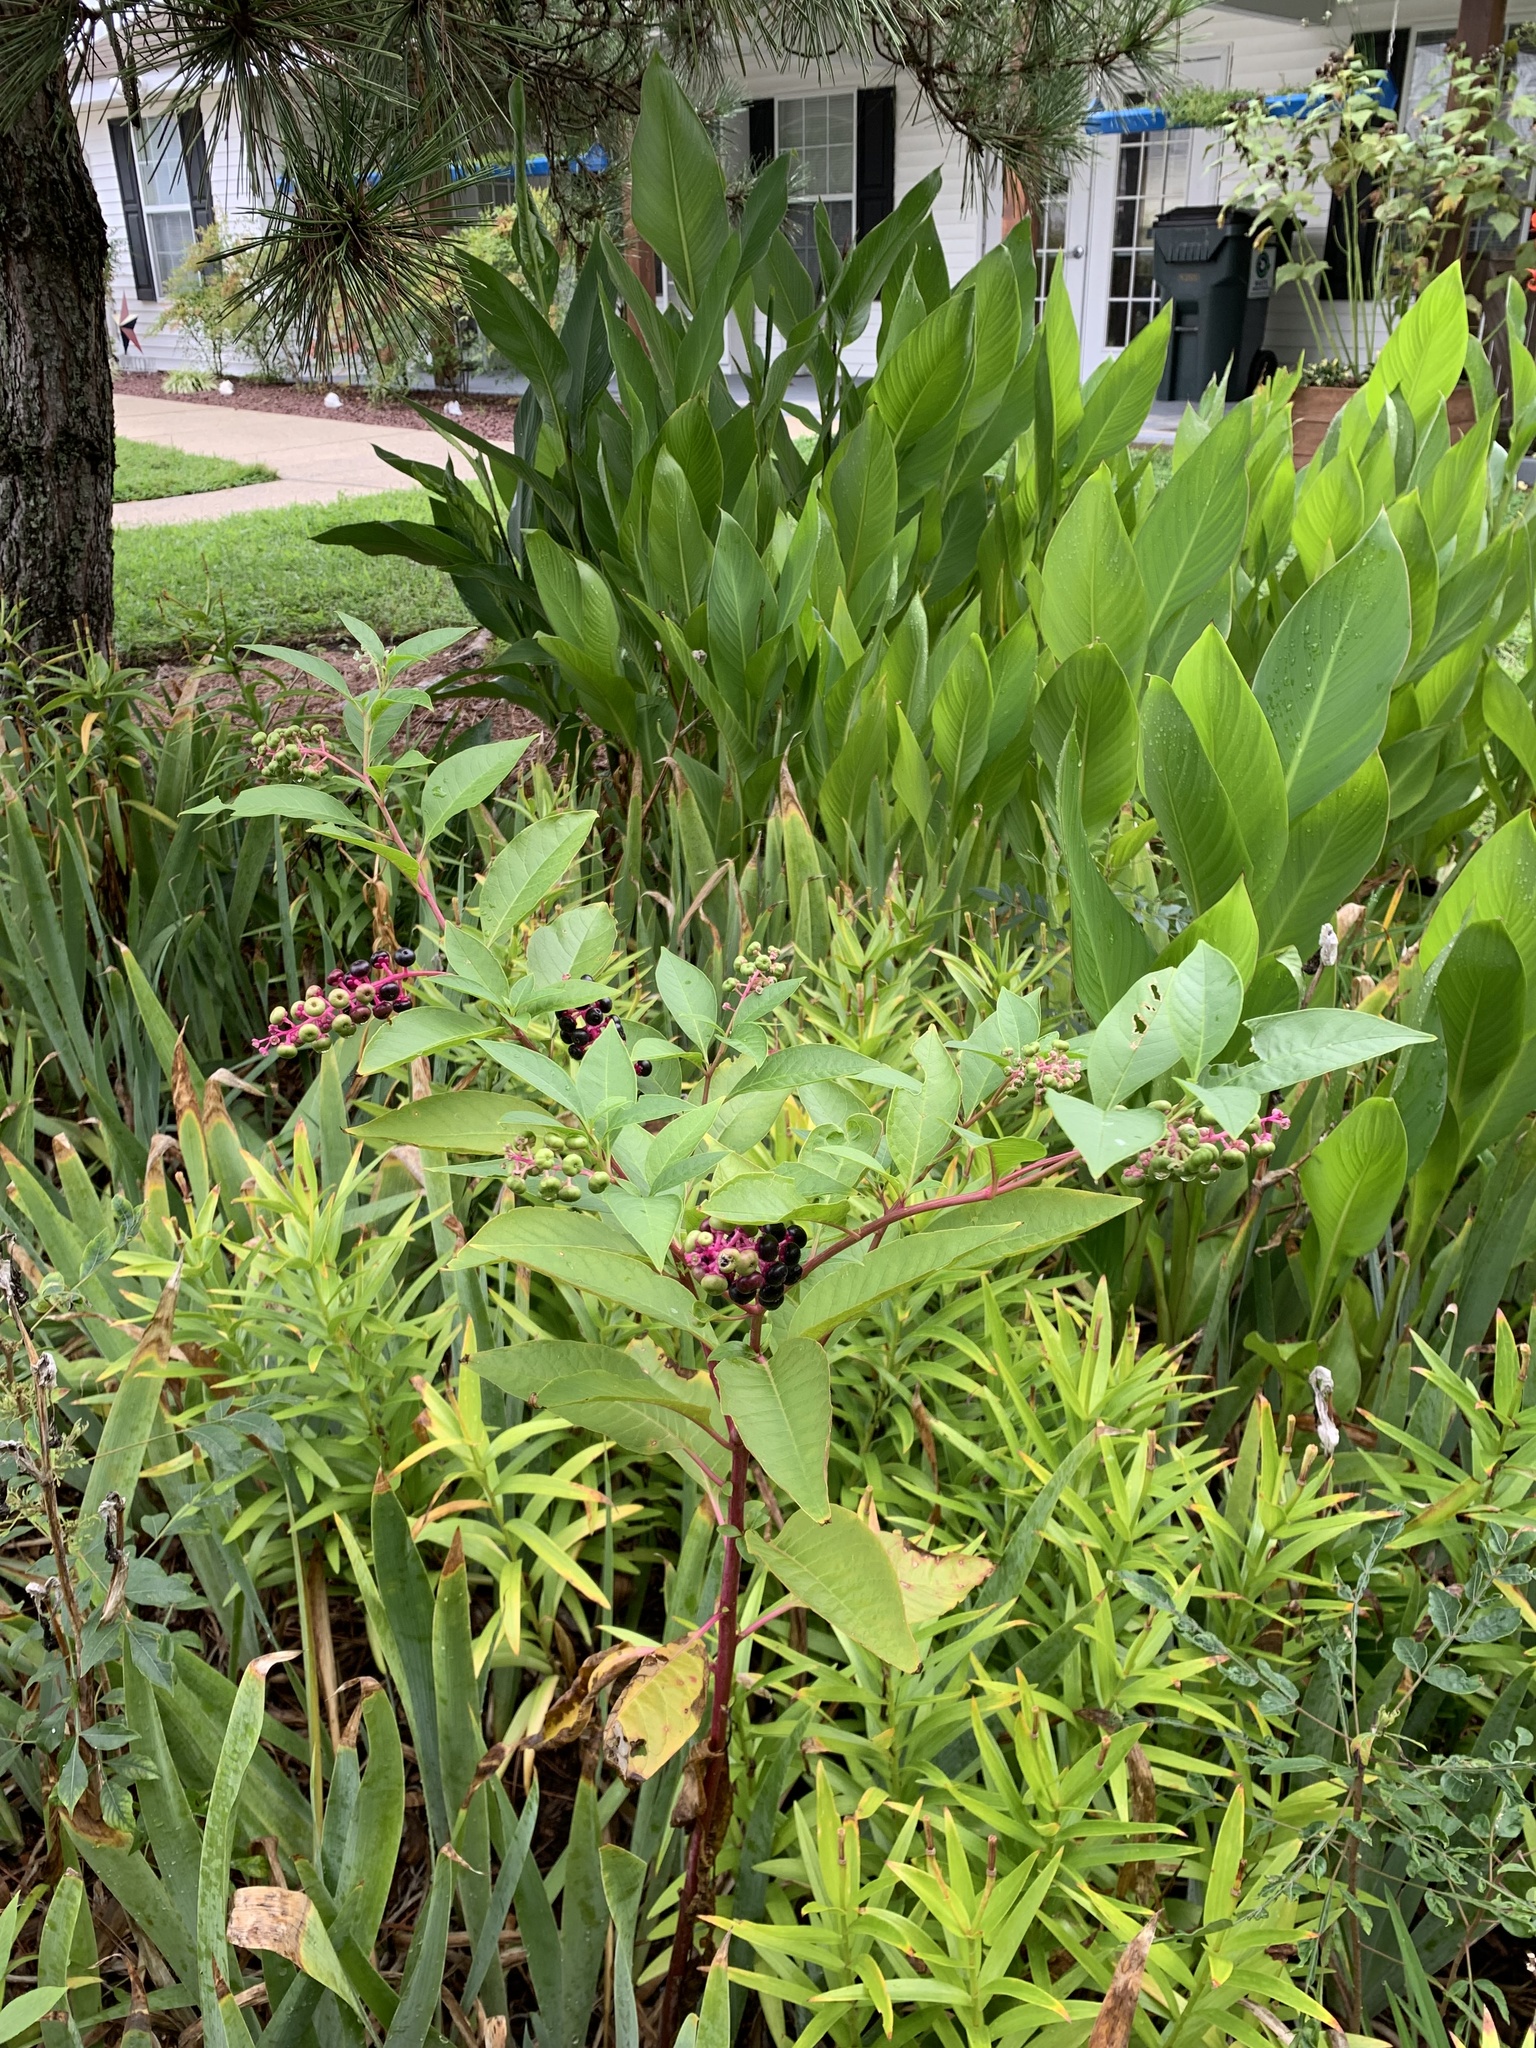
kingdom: Plantae
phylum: Tracheophyta
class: Magnoliopsida
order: Caryophyllales
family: Phytolaccaceae
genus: Phytolacca
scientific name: Phytolacca americana
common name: American pokeweed
